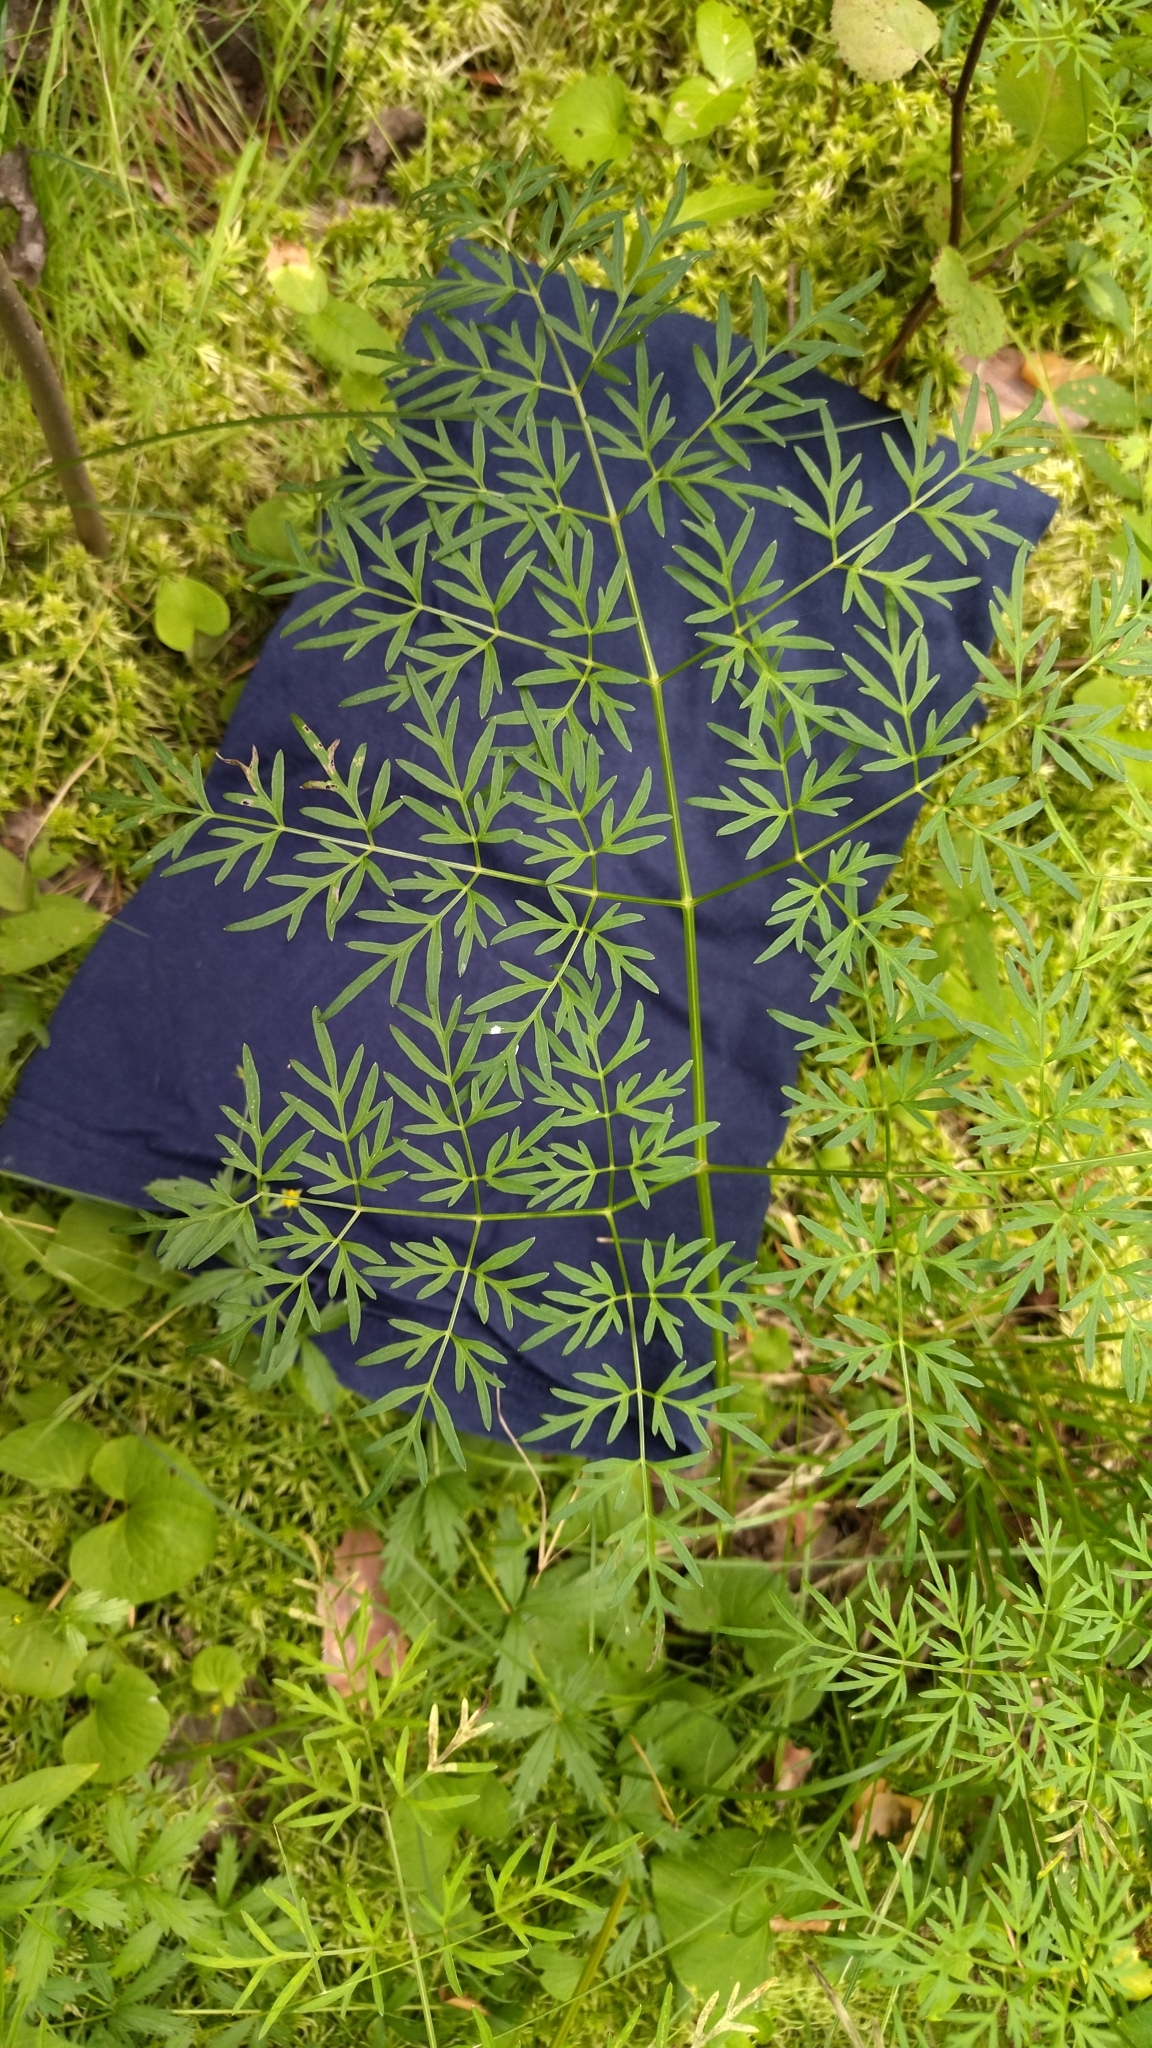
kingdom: Plantae
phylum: Tracheophyta
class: Magnoliopsida
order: Apiales
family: Apiaceae
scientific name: Apiaceae
